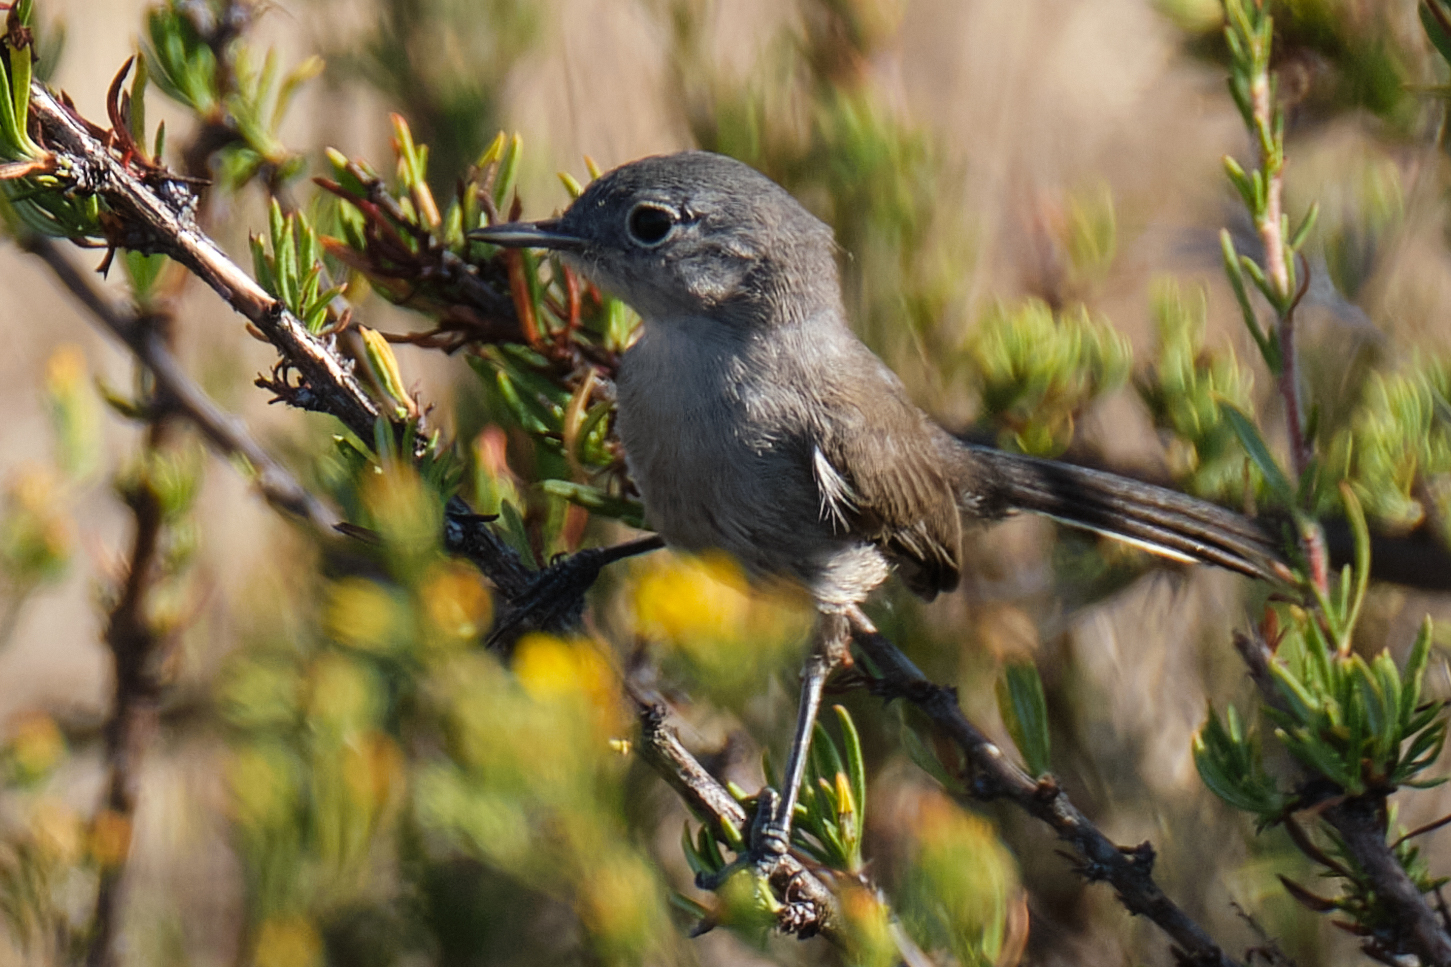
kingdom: Animalia
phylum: Chordata
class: Aves
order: Passeriformes
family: Polioptilidae
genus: Polioptila
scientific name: Polioptila californica
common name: California gnatcatcher
